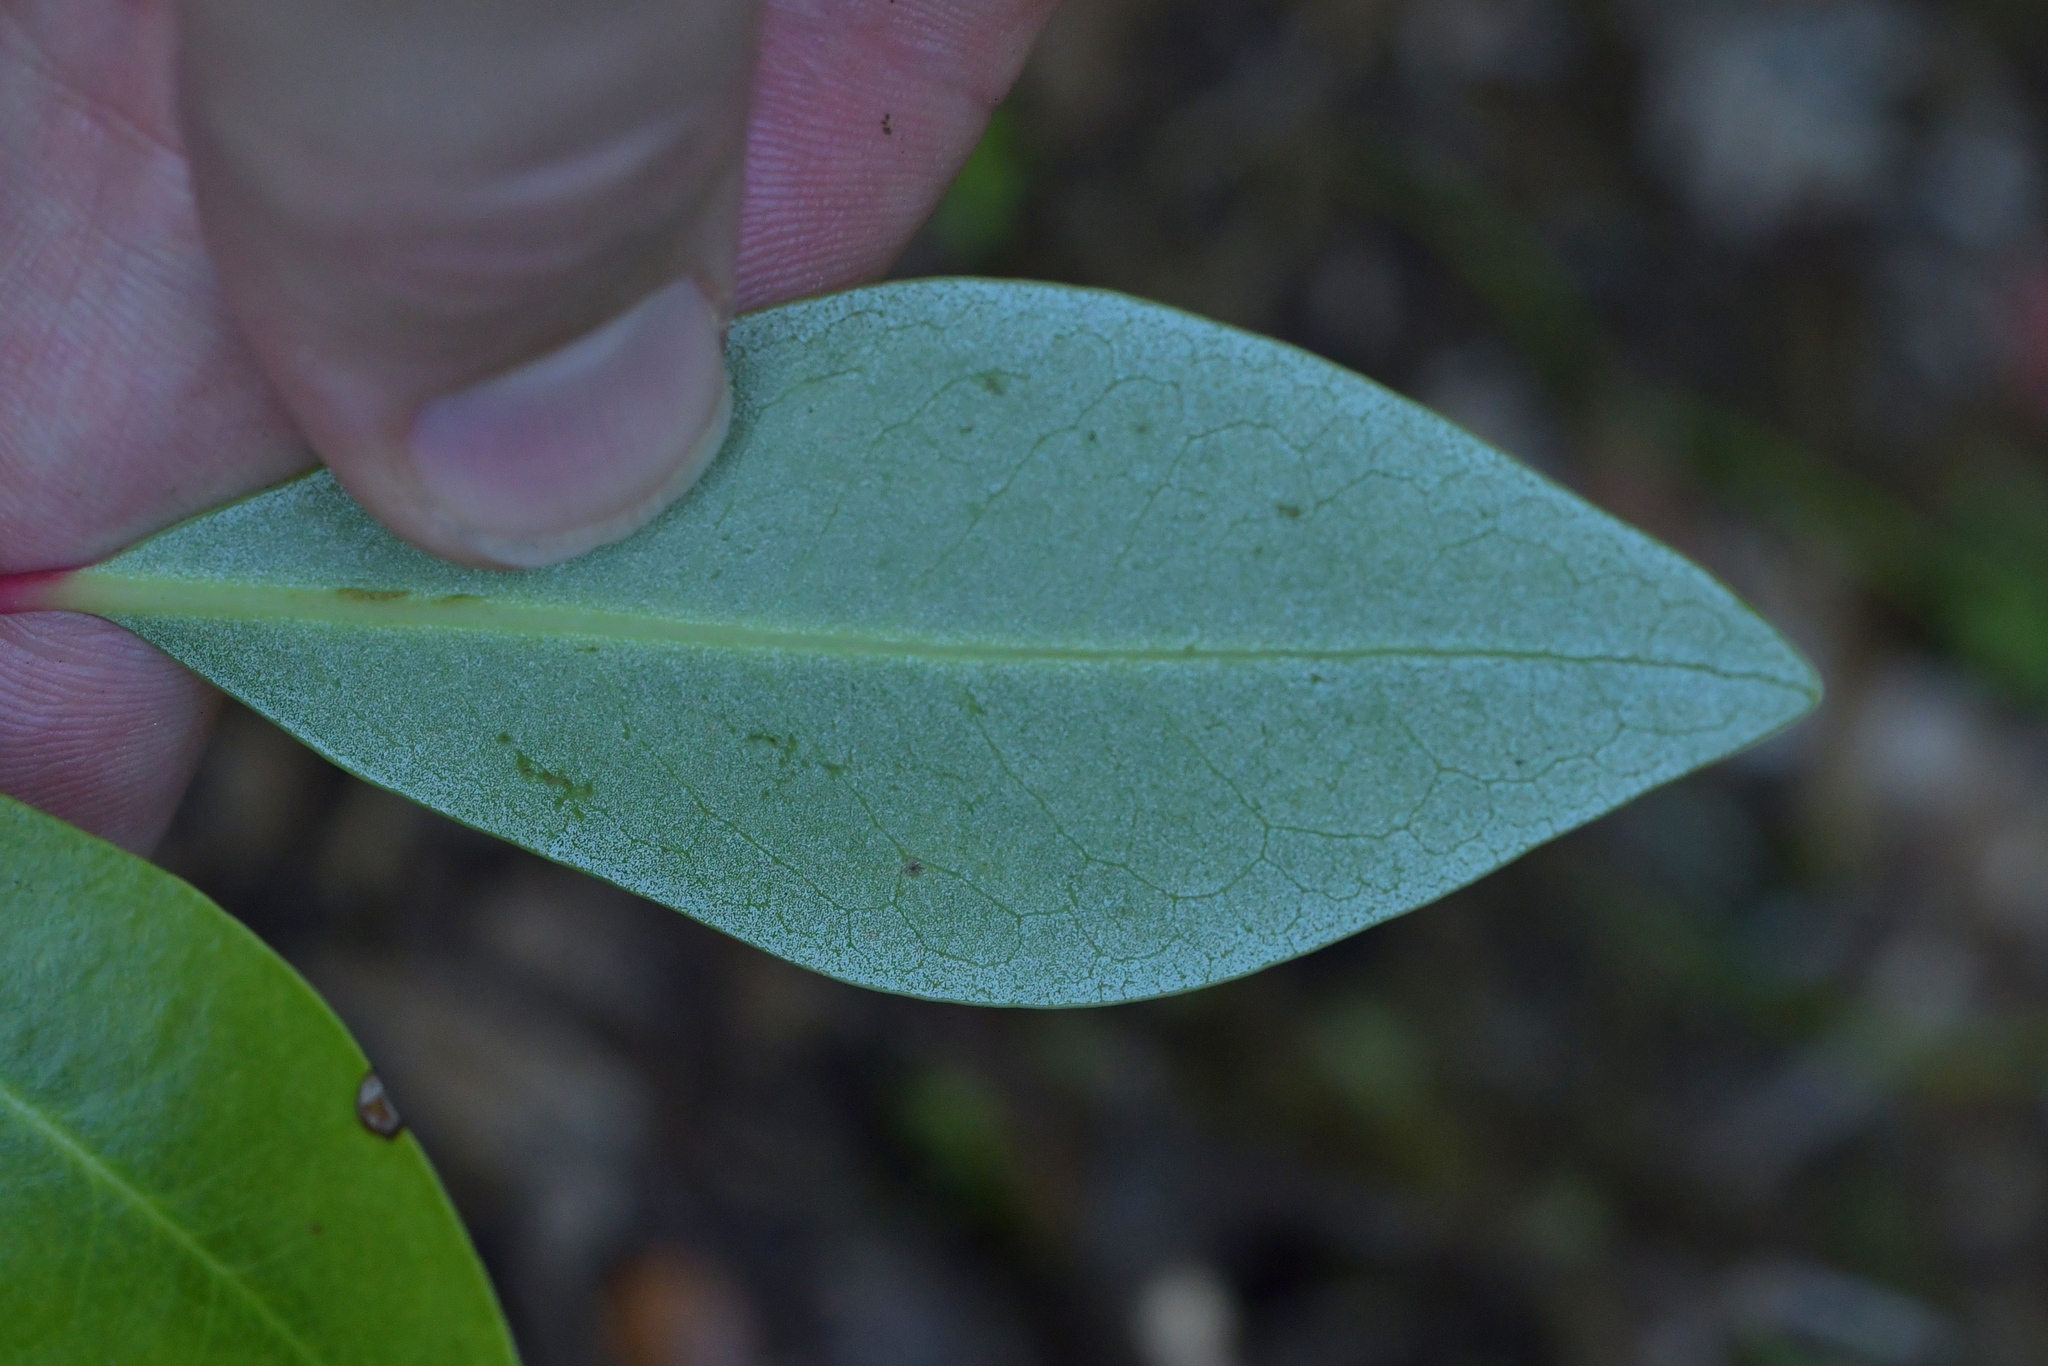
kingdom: Plantae
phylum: Tracheophyta
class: Magnoliopsida
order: Canellales
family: Winteraceae
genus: Pseudowintera
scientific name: Pseudowintera axillaris
